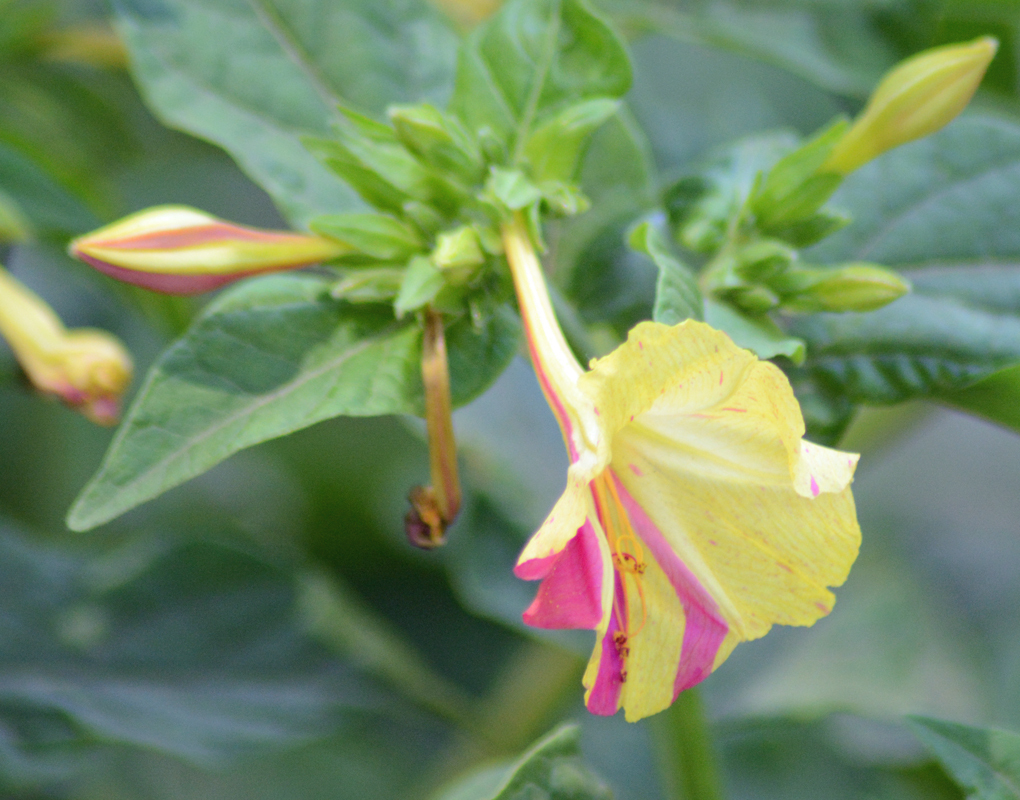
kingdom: Plantae
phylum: Tracheophyta
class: Magnoliopsida
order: Caryophyllales
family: Nyctaginaceae
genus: Mirabilis
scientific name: Mirabilis jalapa
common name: Marvel-of-peru
